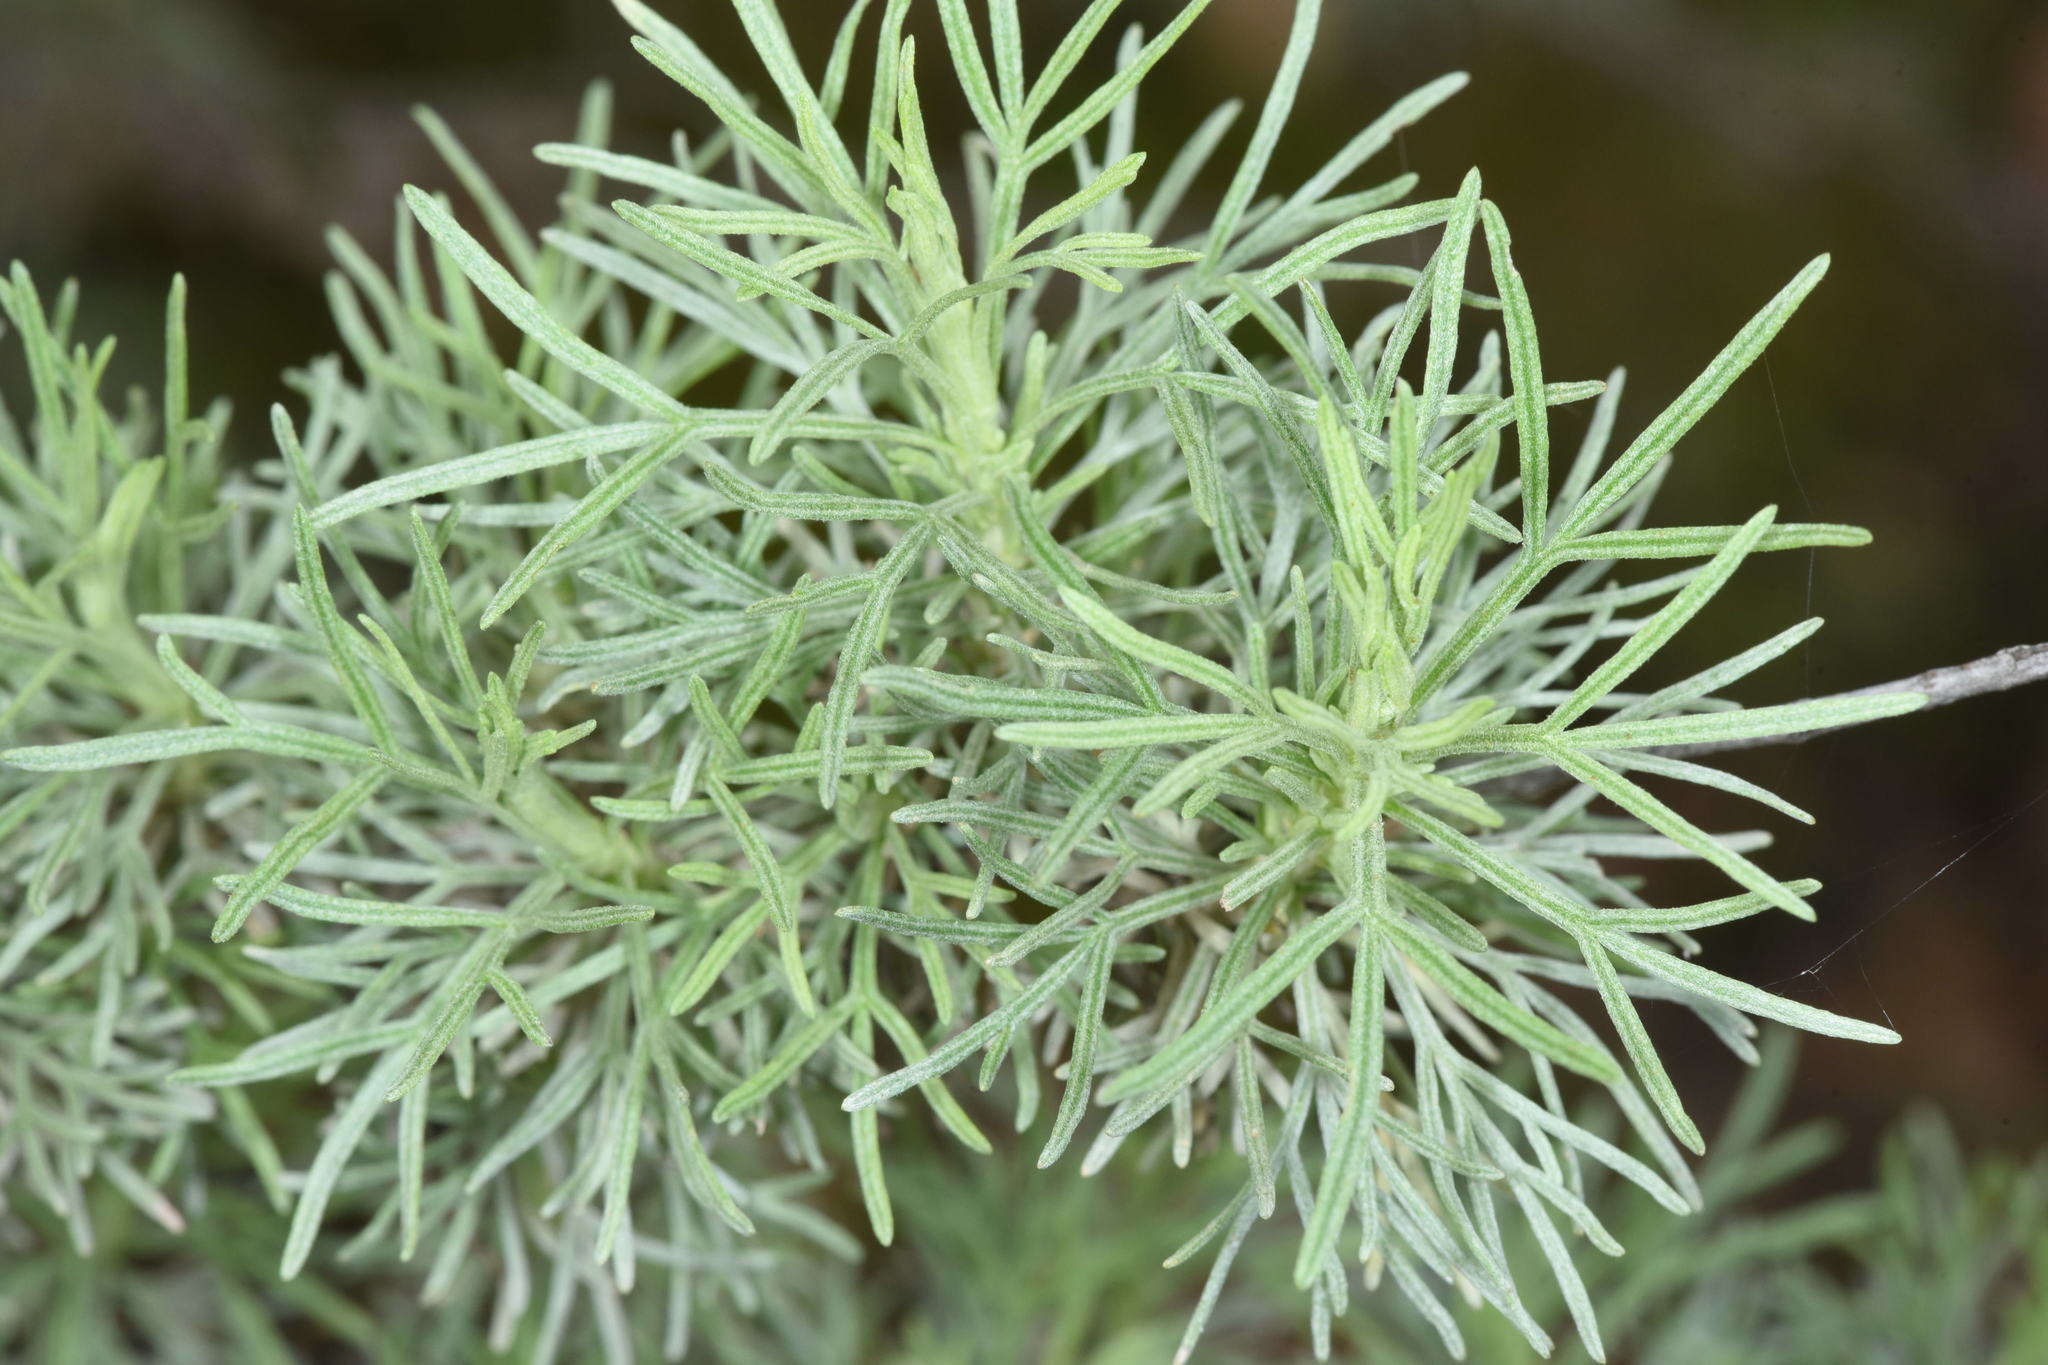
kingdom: Plantae
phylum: Tracheophyta
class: Magnoliopsida
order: Asterales
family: Asteraceae
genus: Artemisia
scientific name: Artemisia californica
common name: California sagebrush
